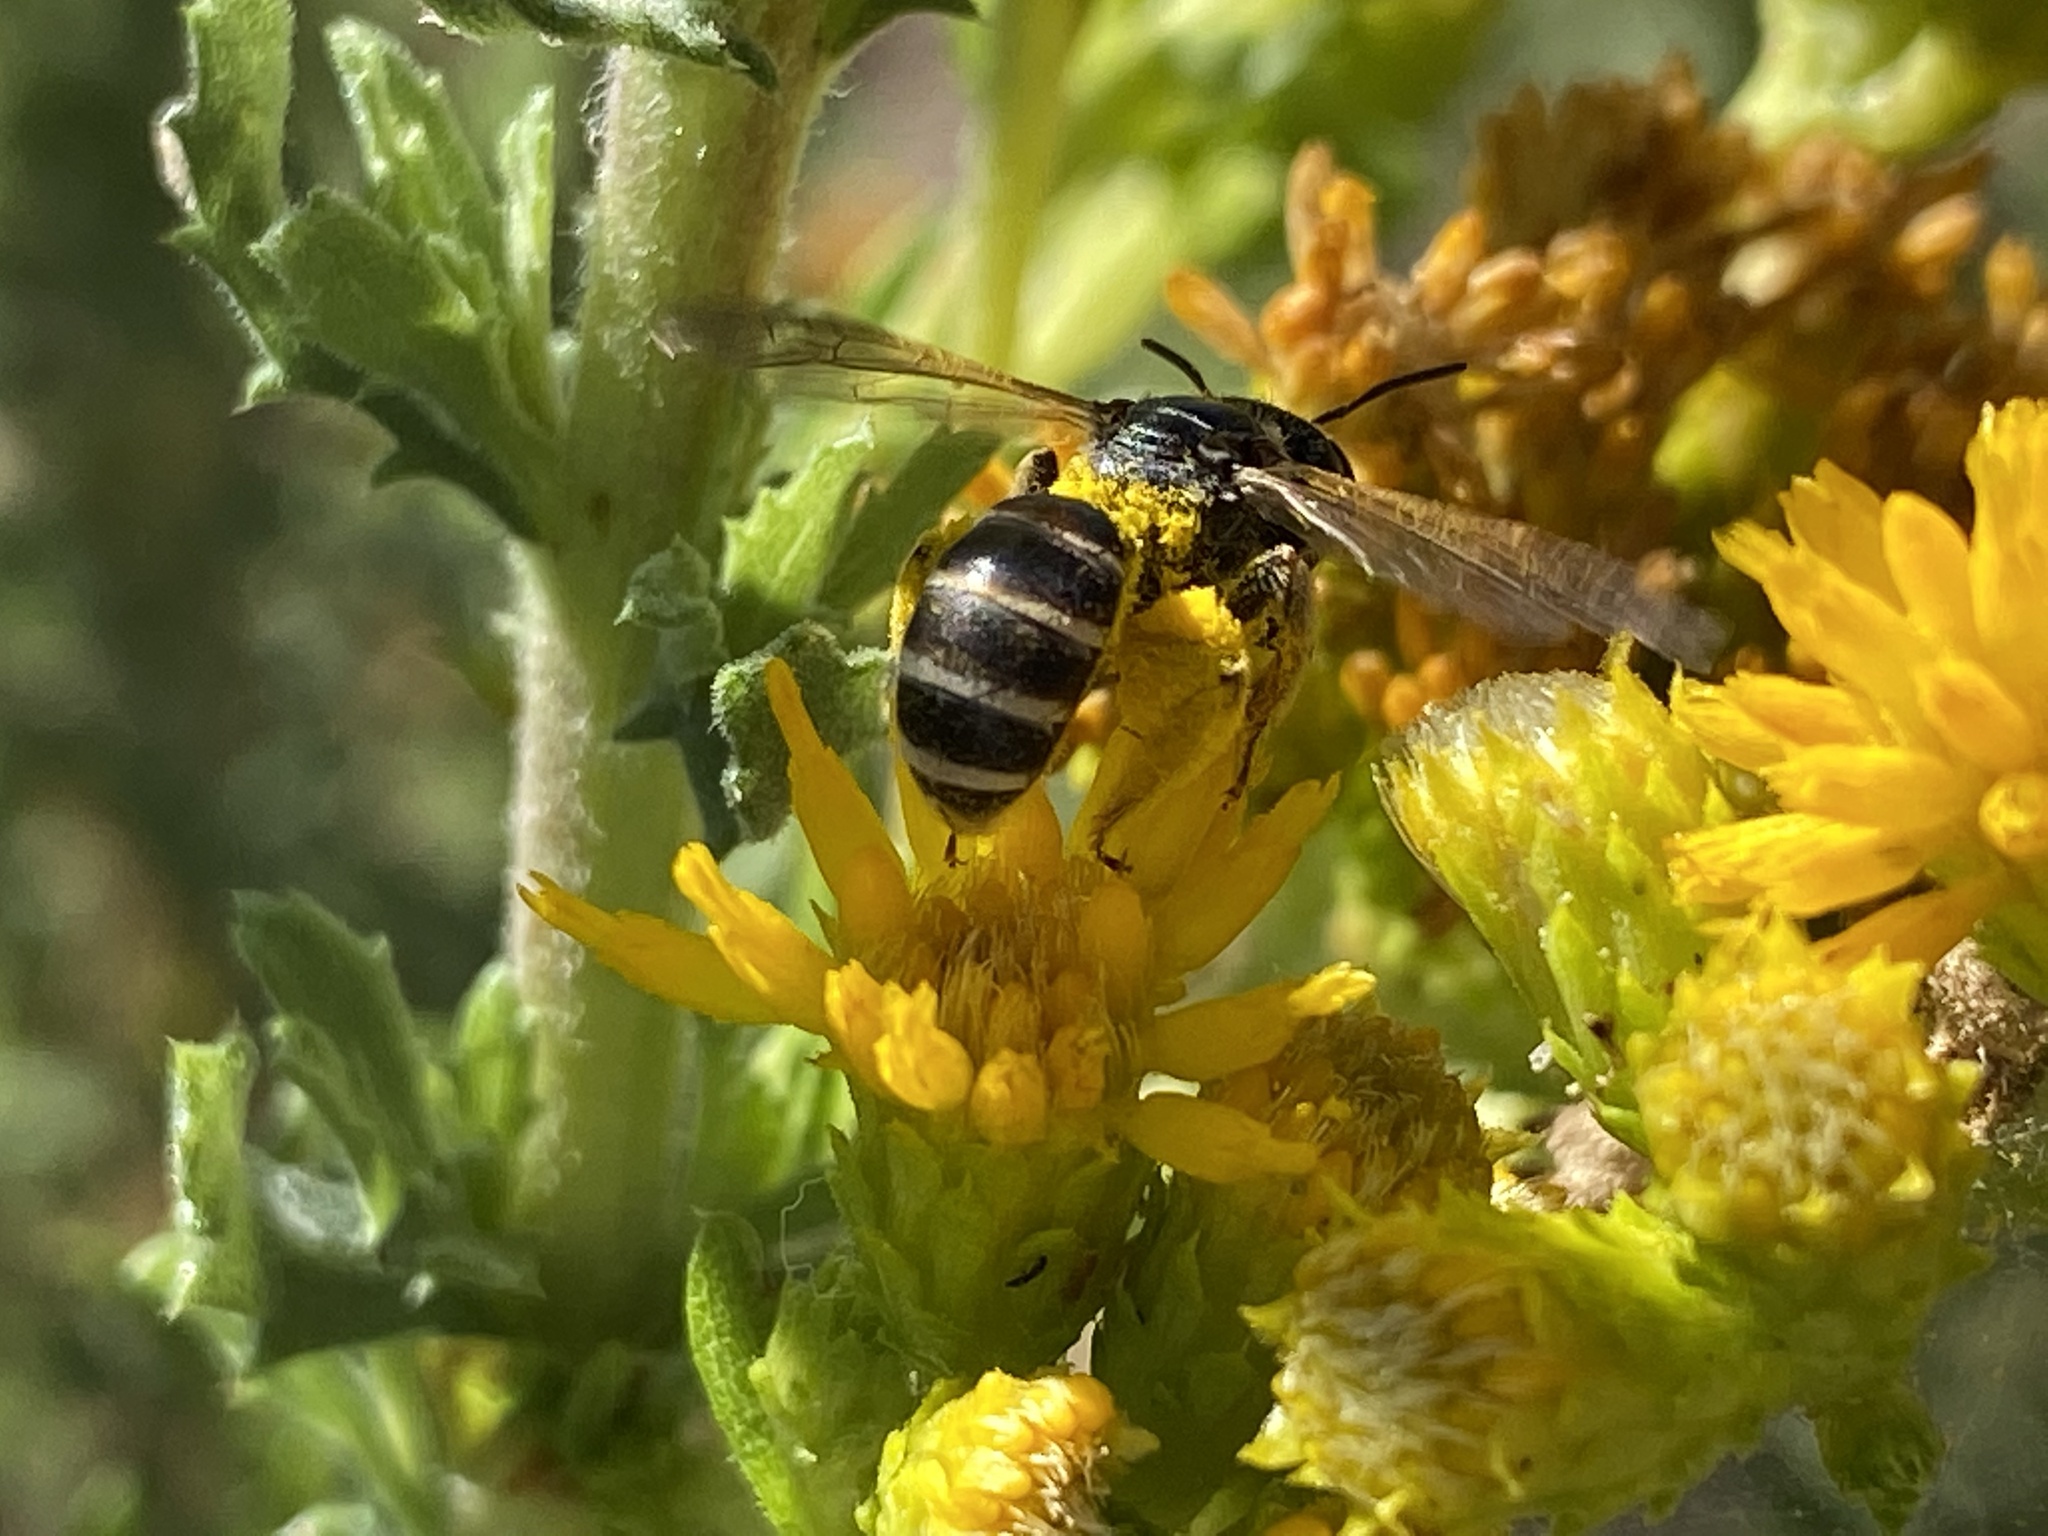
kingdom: Animalia
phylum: Arthropoda
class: Insecta
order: Hymenoptera
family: Halictidae
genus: Halictus
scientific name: Halictus ligatus
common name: Ligated furrow bee
